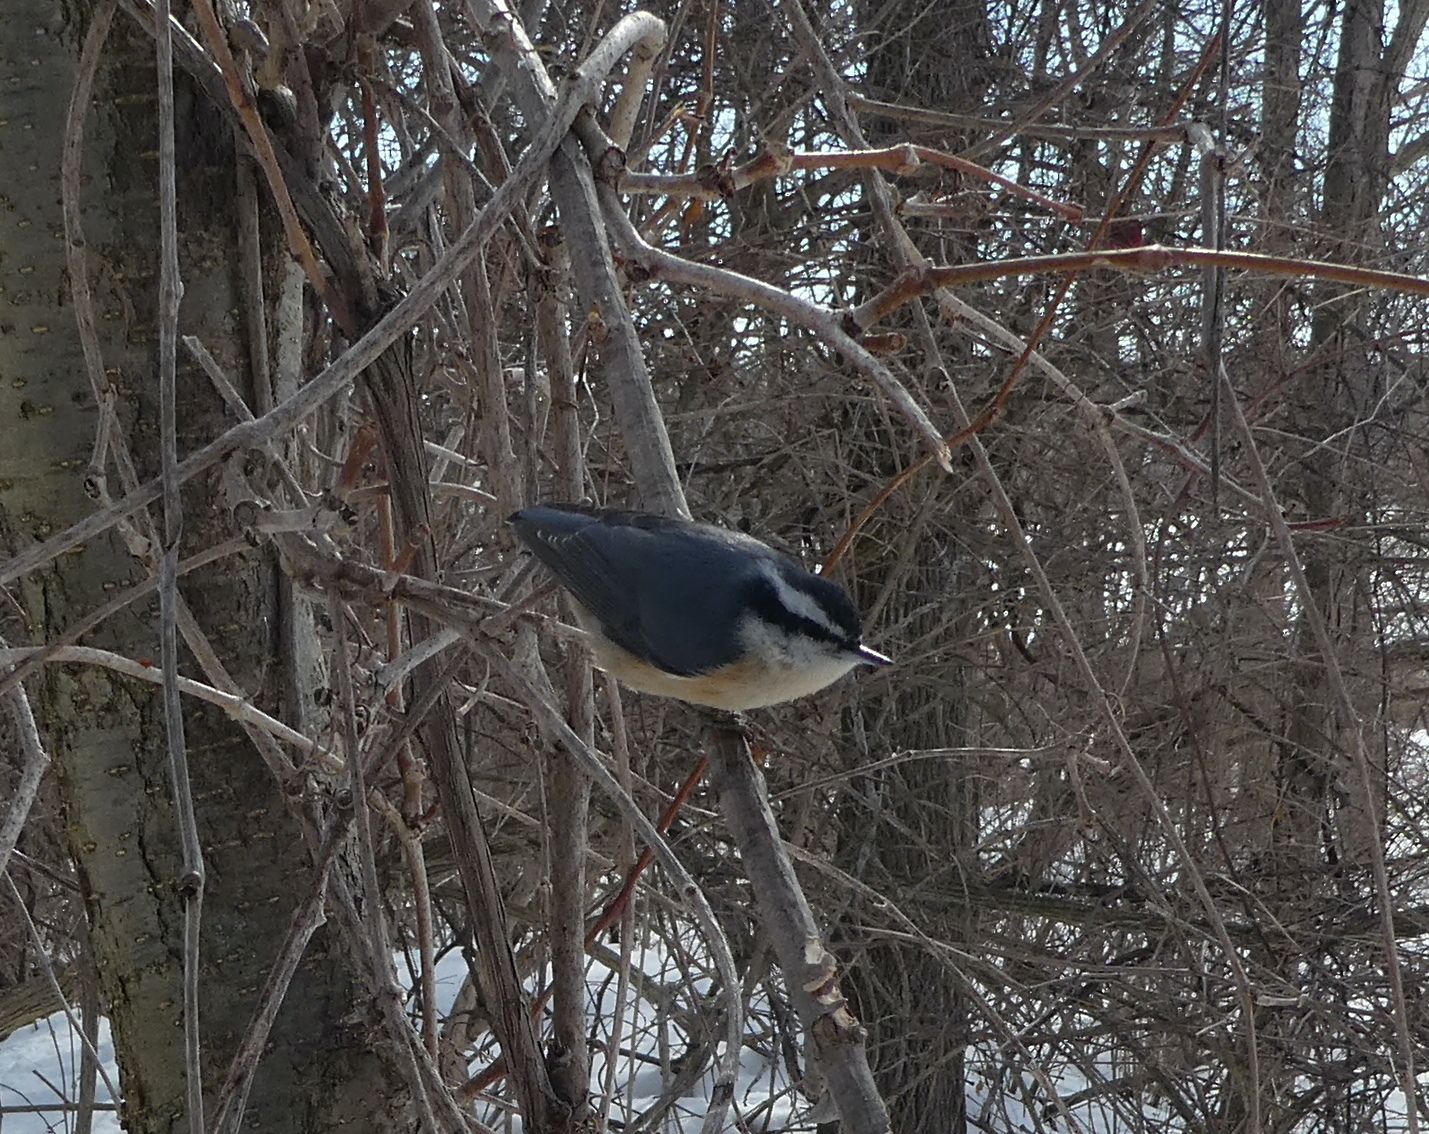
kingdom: Animalia
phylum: Chordata
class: Aves
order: Passeriformes
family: Sittidae
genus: Sitta
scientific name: Sitta canadensis
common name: Red-breasted nuthatch
